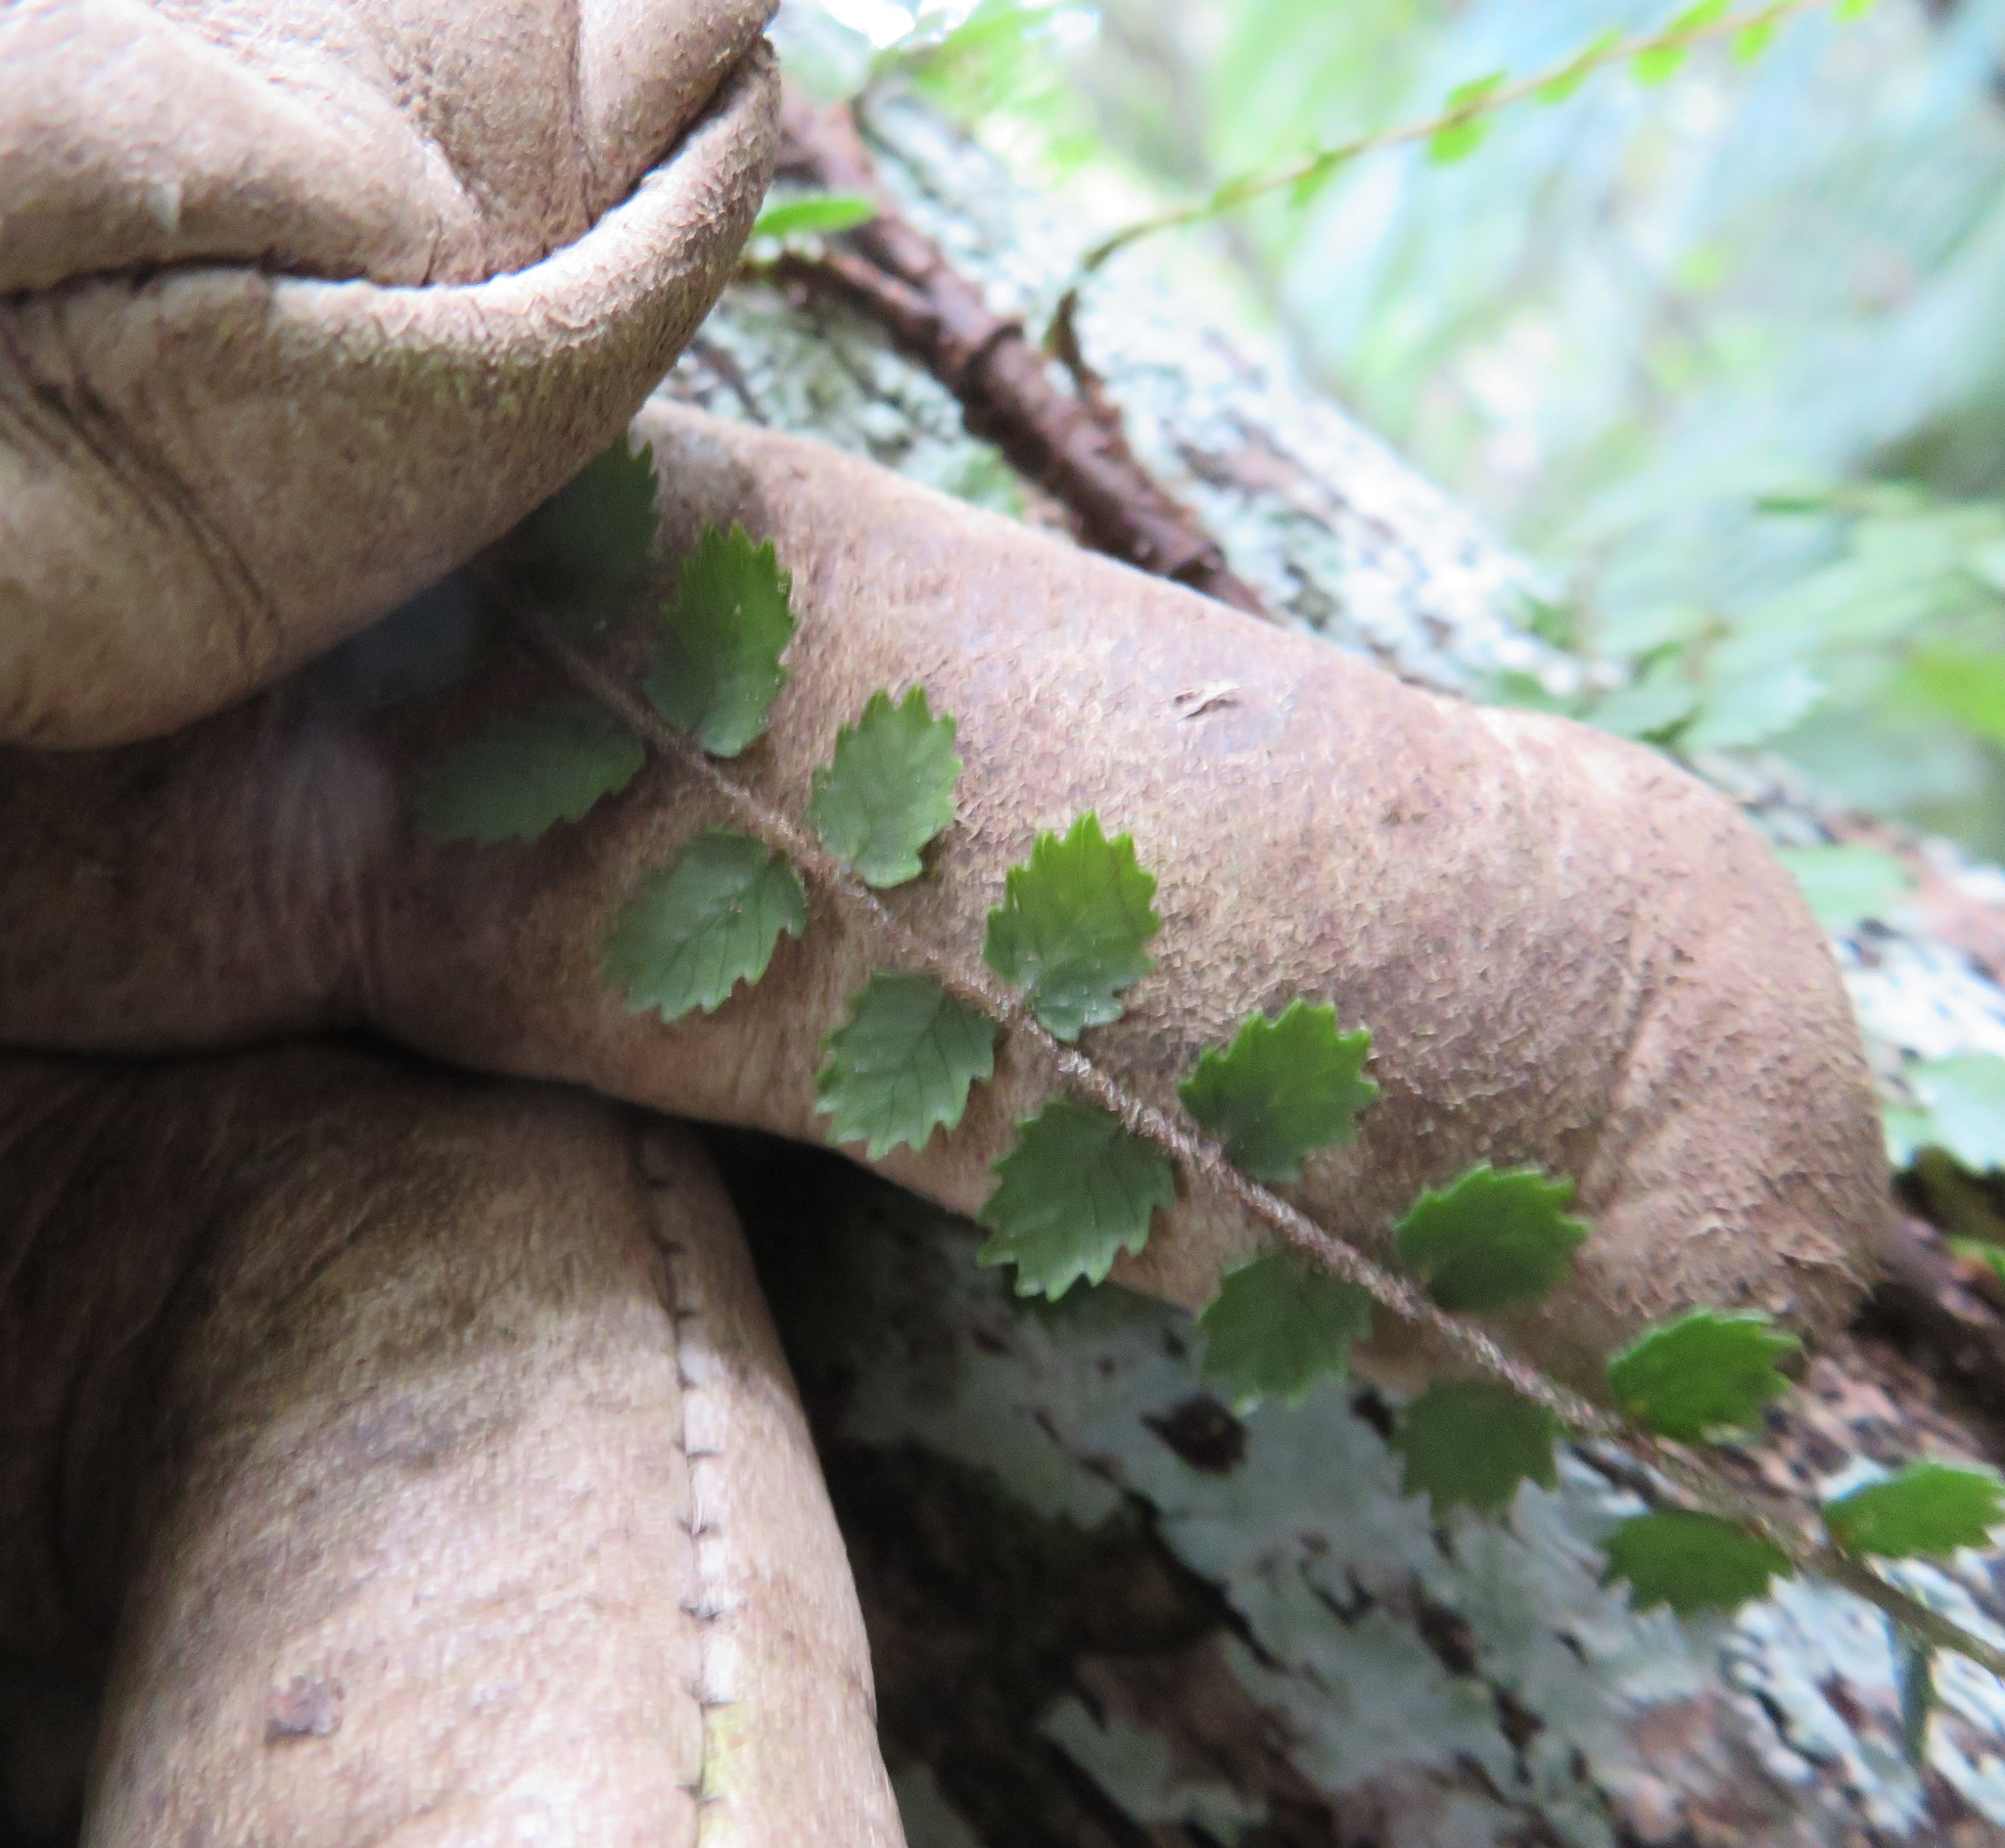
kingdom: Plantae
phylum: Tracheophyta
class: Polypodiopsida
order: Polypodiales
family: Blechnaceae
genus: Icarus
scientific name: Icarus filiformis
